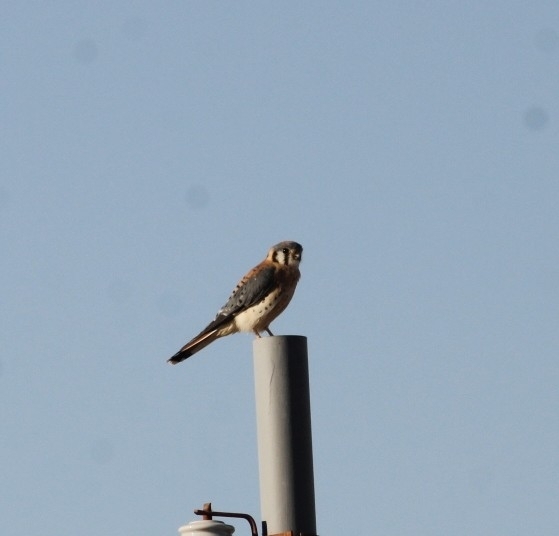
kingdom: Animalia
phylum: Chordata
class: Aves
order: Falconiformes
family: Falconidae
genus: Falco
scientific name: Falco sparverius
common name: American kestrel
